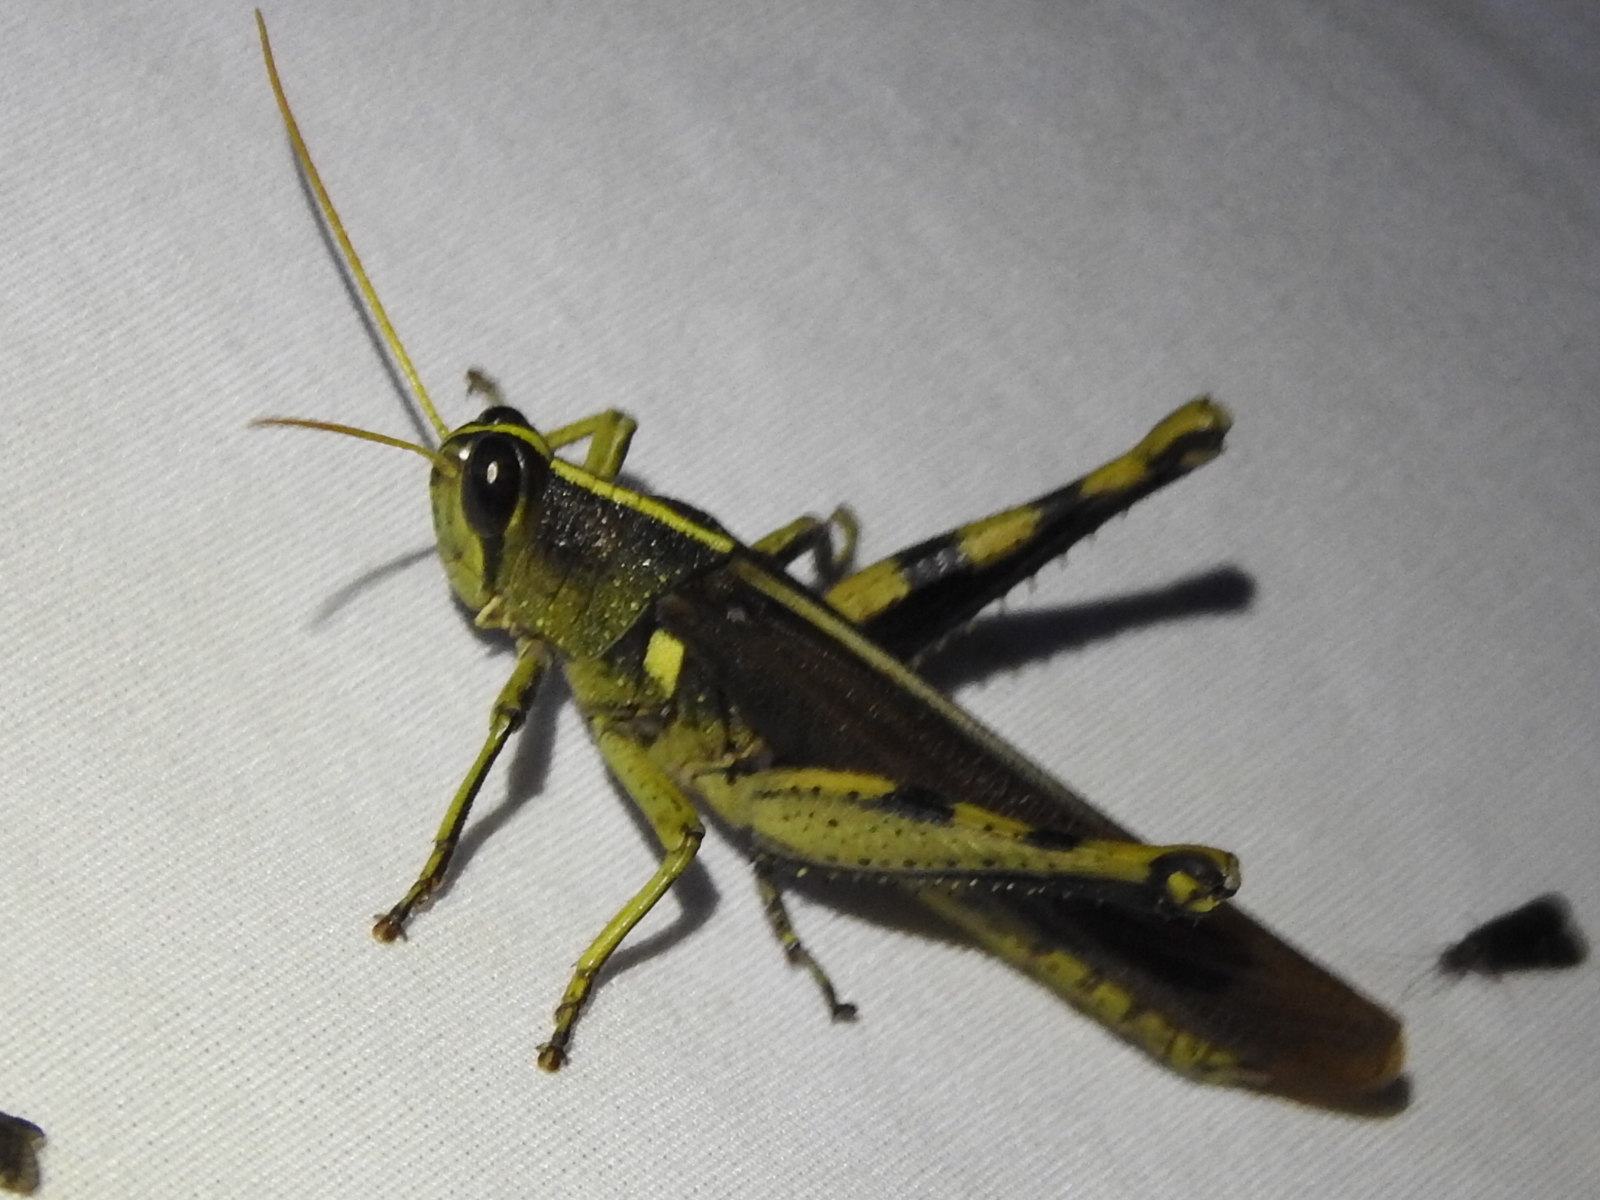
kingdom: Animalia
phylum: Arthropoda
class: Insecta
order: Orthoptera
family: Acrididae
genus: Schistocerca
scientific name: Schistocerca obscura
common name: Obscure bird grasshopper
